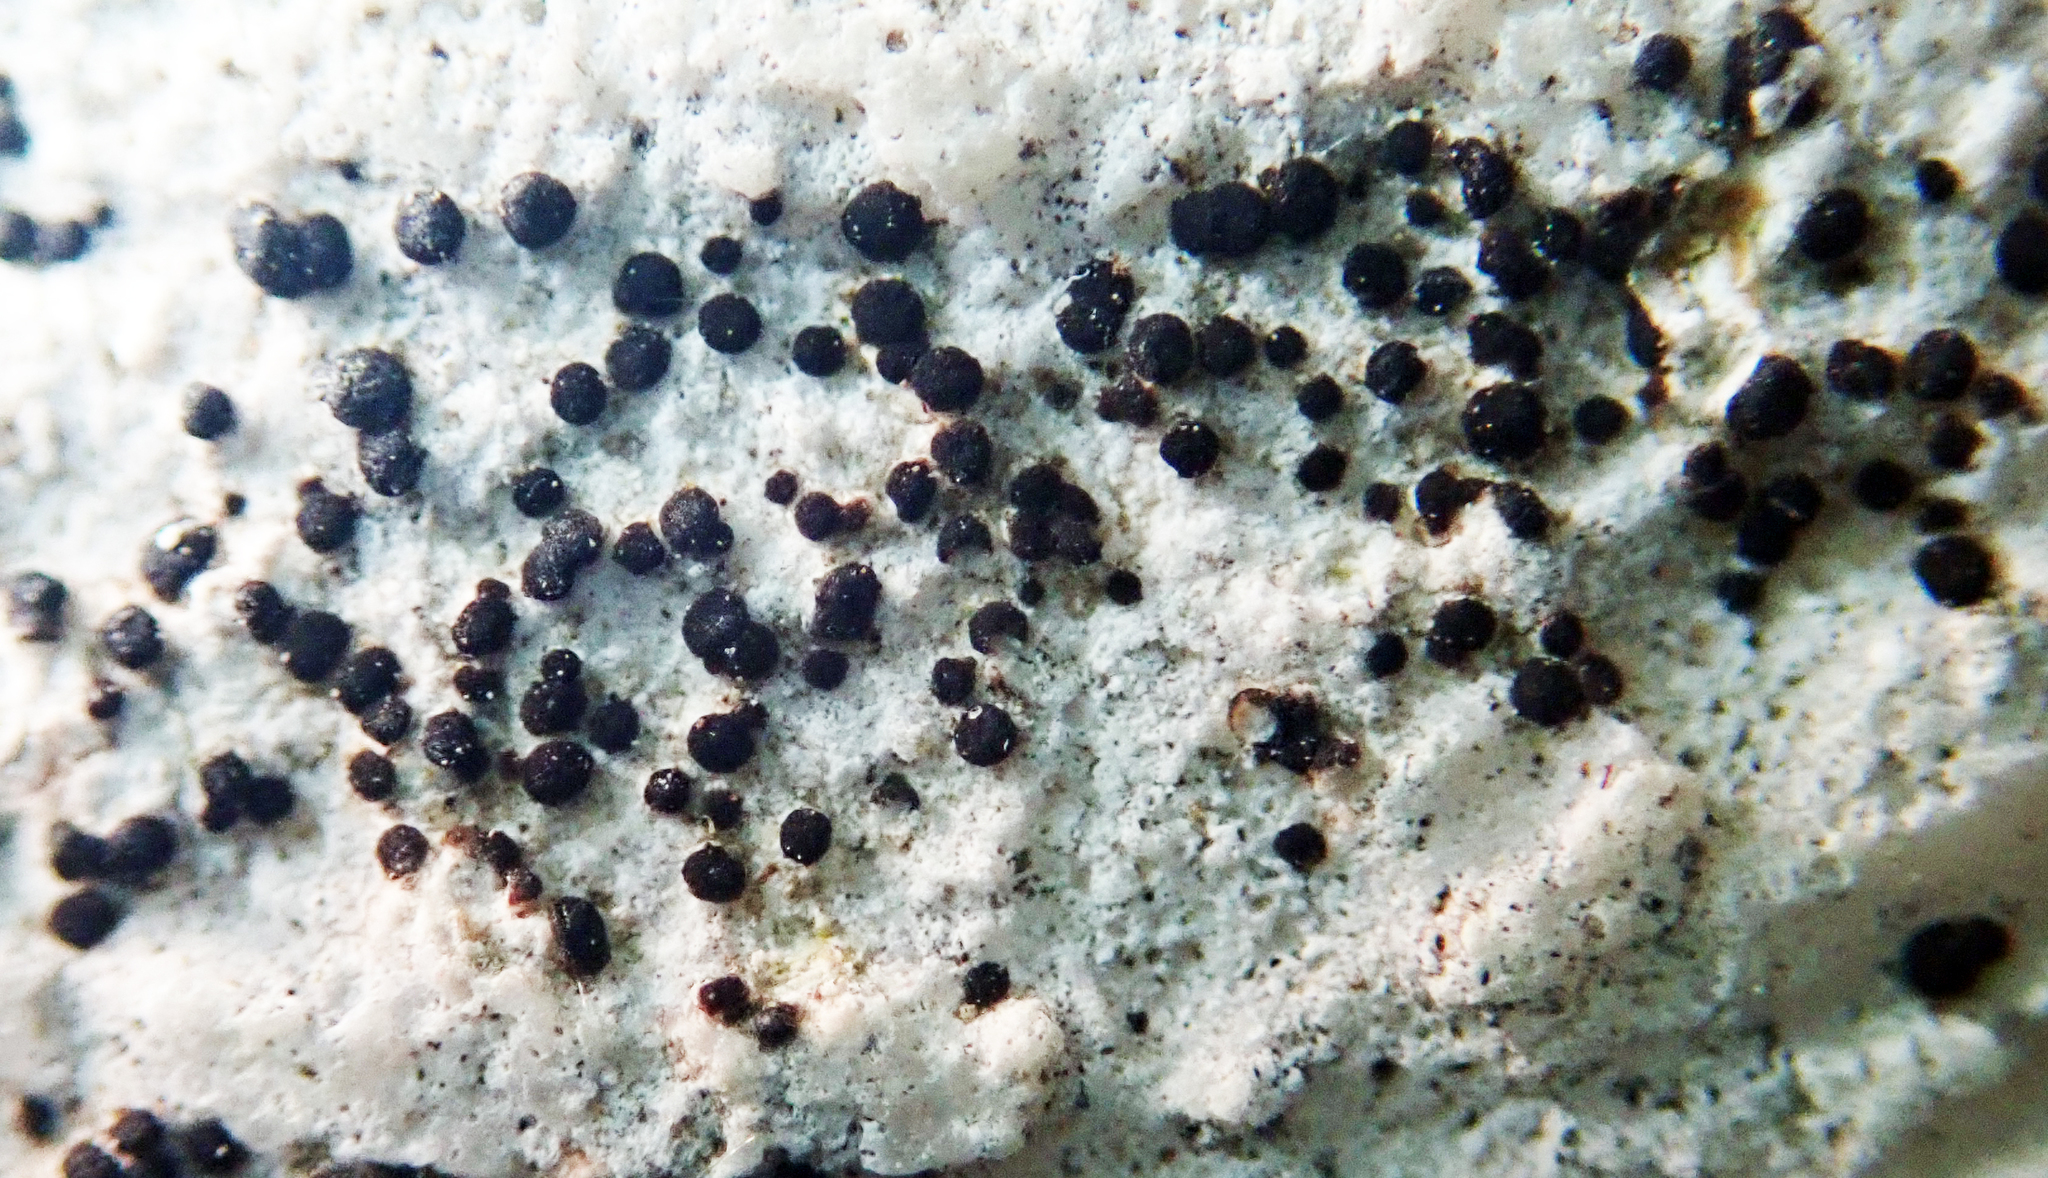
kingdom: Fungi
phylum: Ascomycota
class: Lecanoromycetes
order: Lecanorales
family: Catillariaceae
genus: Catillaria
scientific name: Catillaria glaucogrisea
